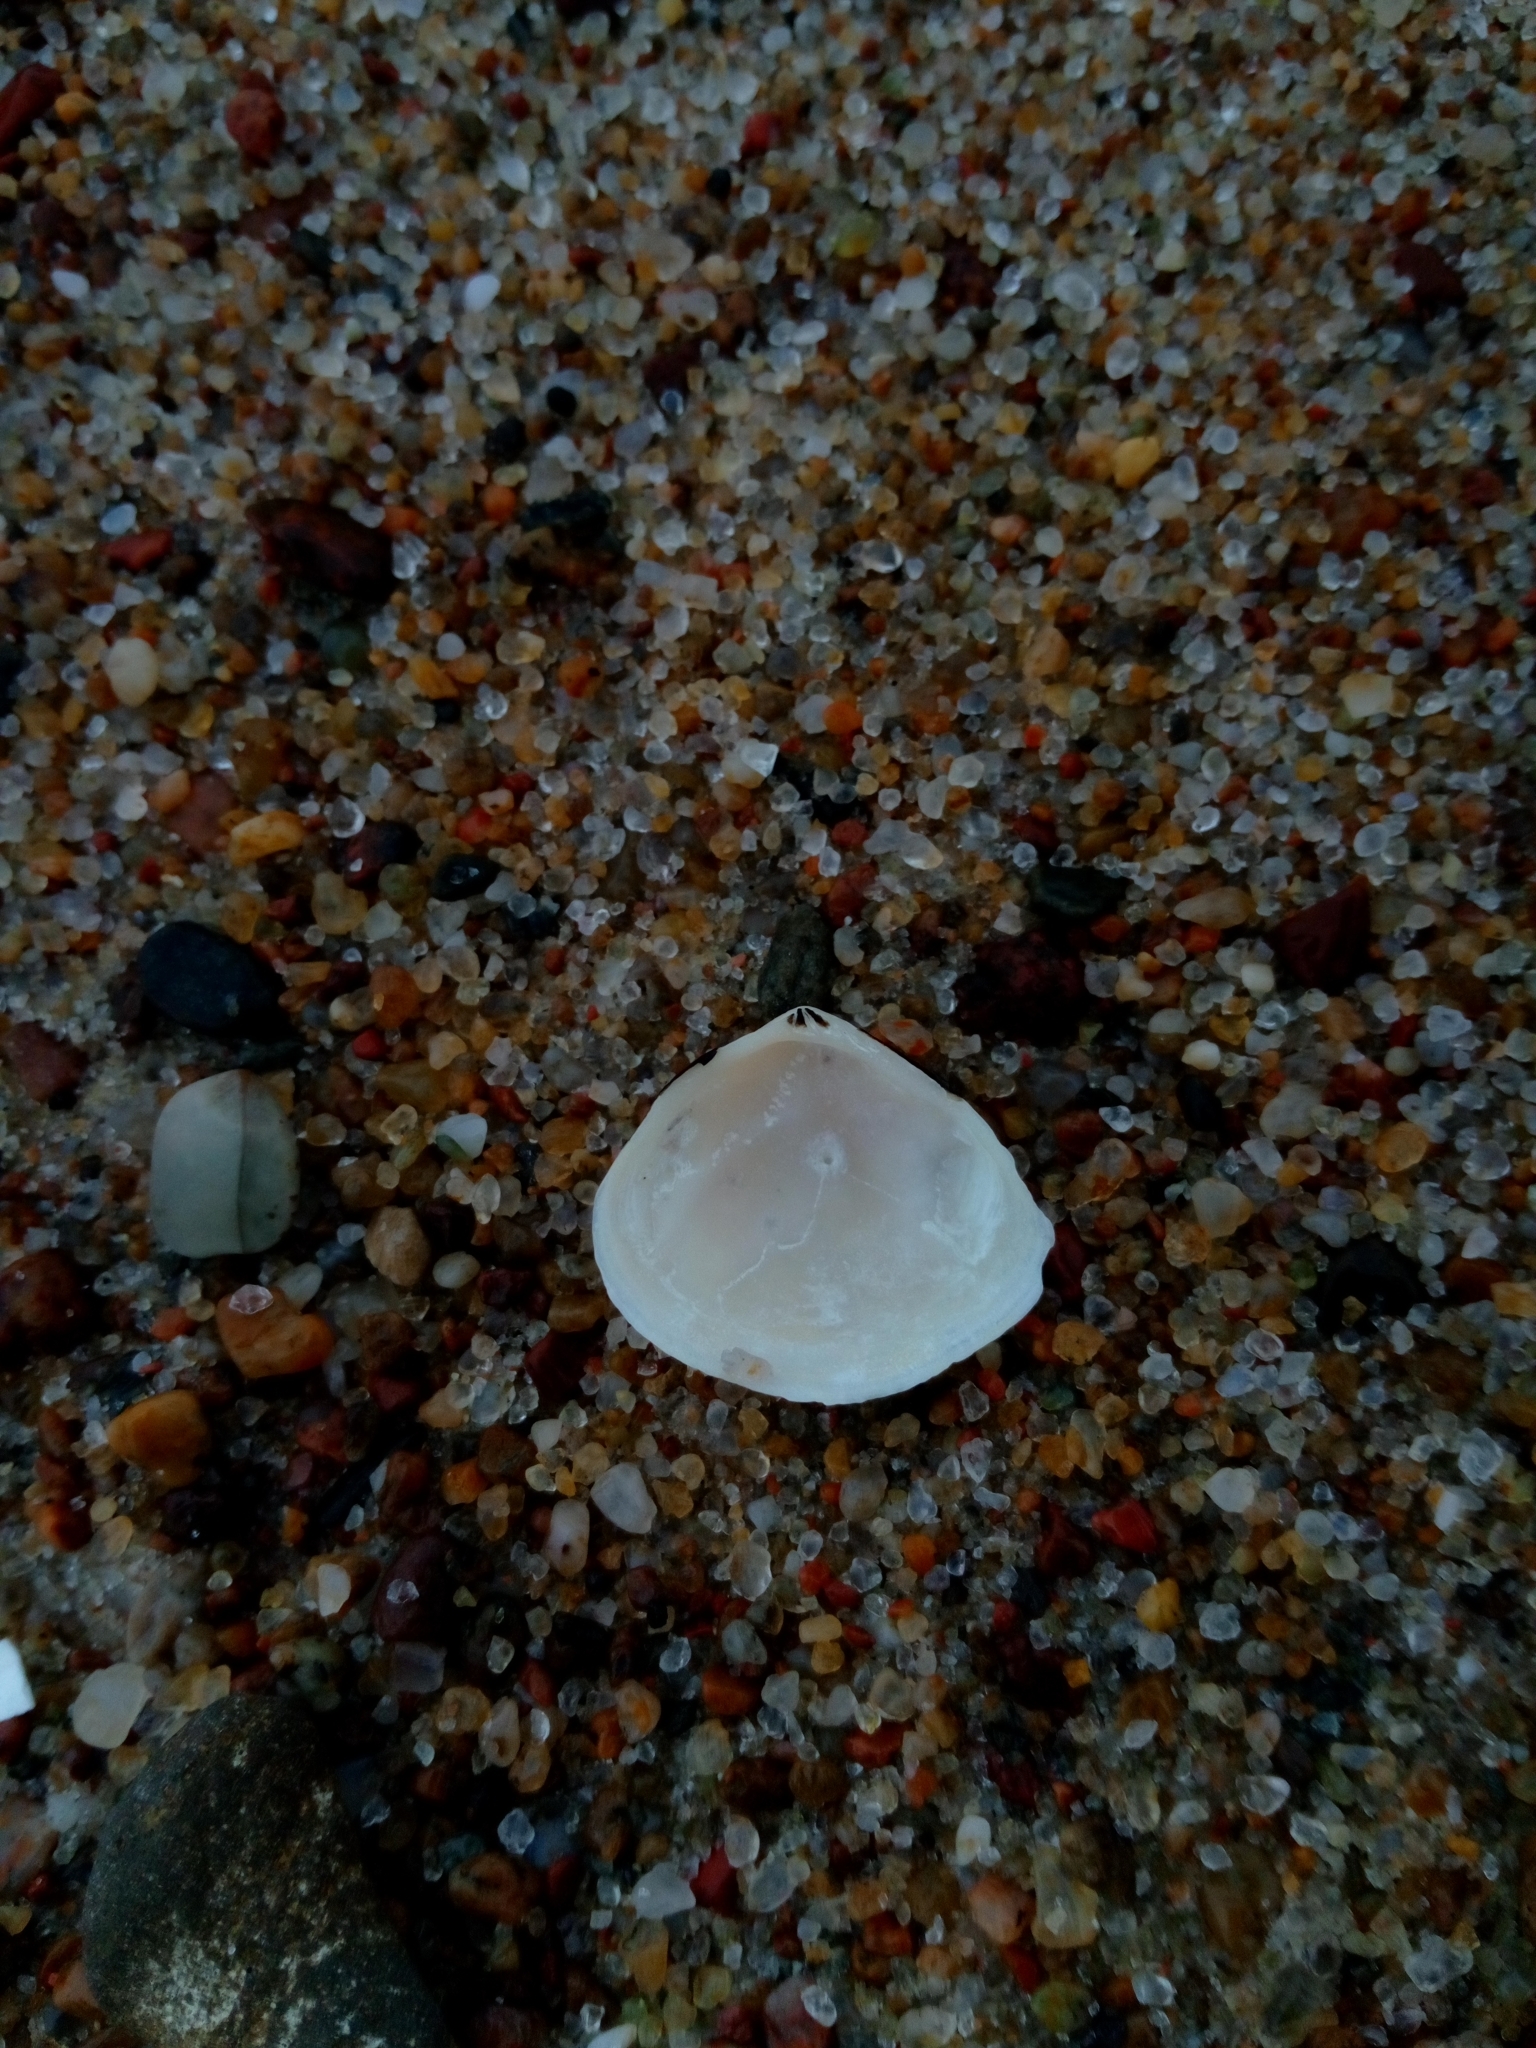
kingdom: Animalia
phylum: Mollusca
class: Bivalvia
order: Cardiida
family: Tellinidae
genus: Macoma
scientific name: Macoma balthica
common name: Baltic tellin
